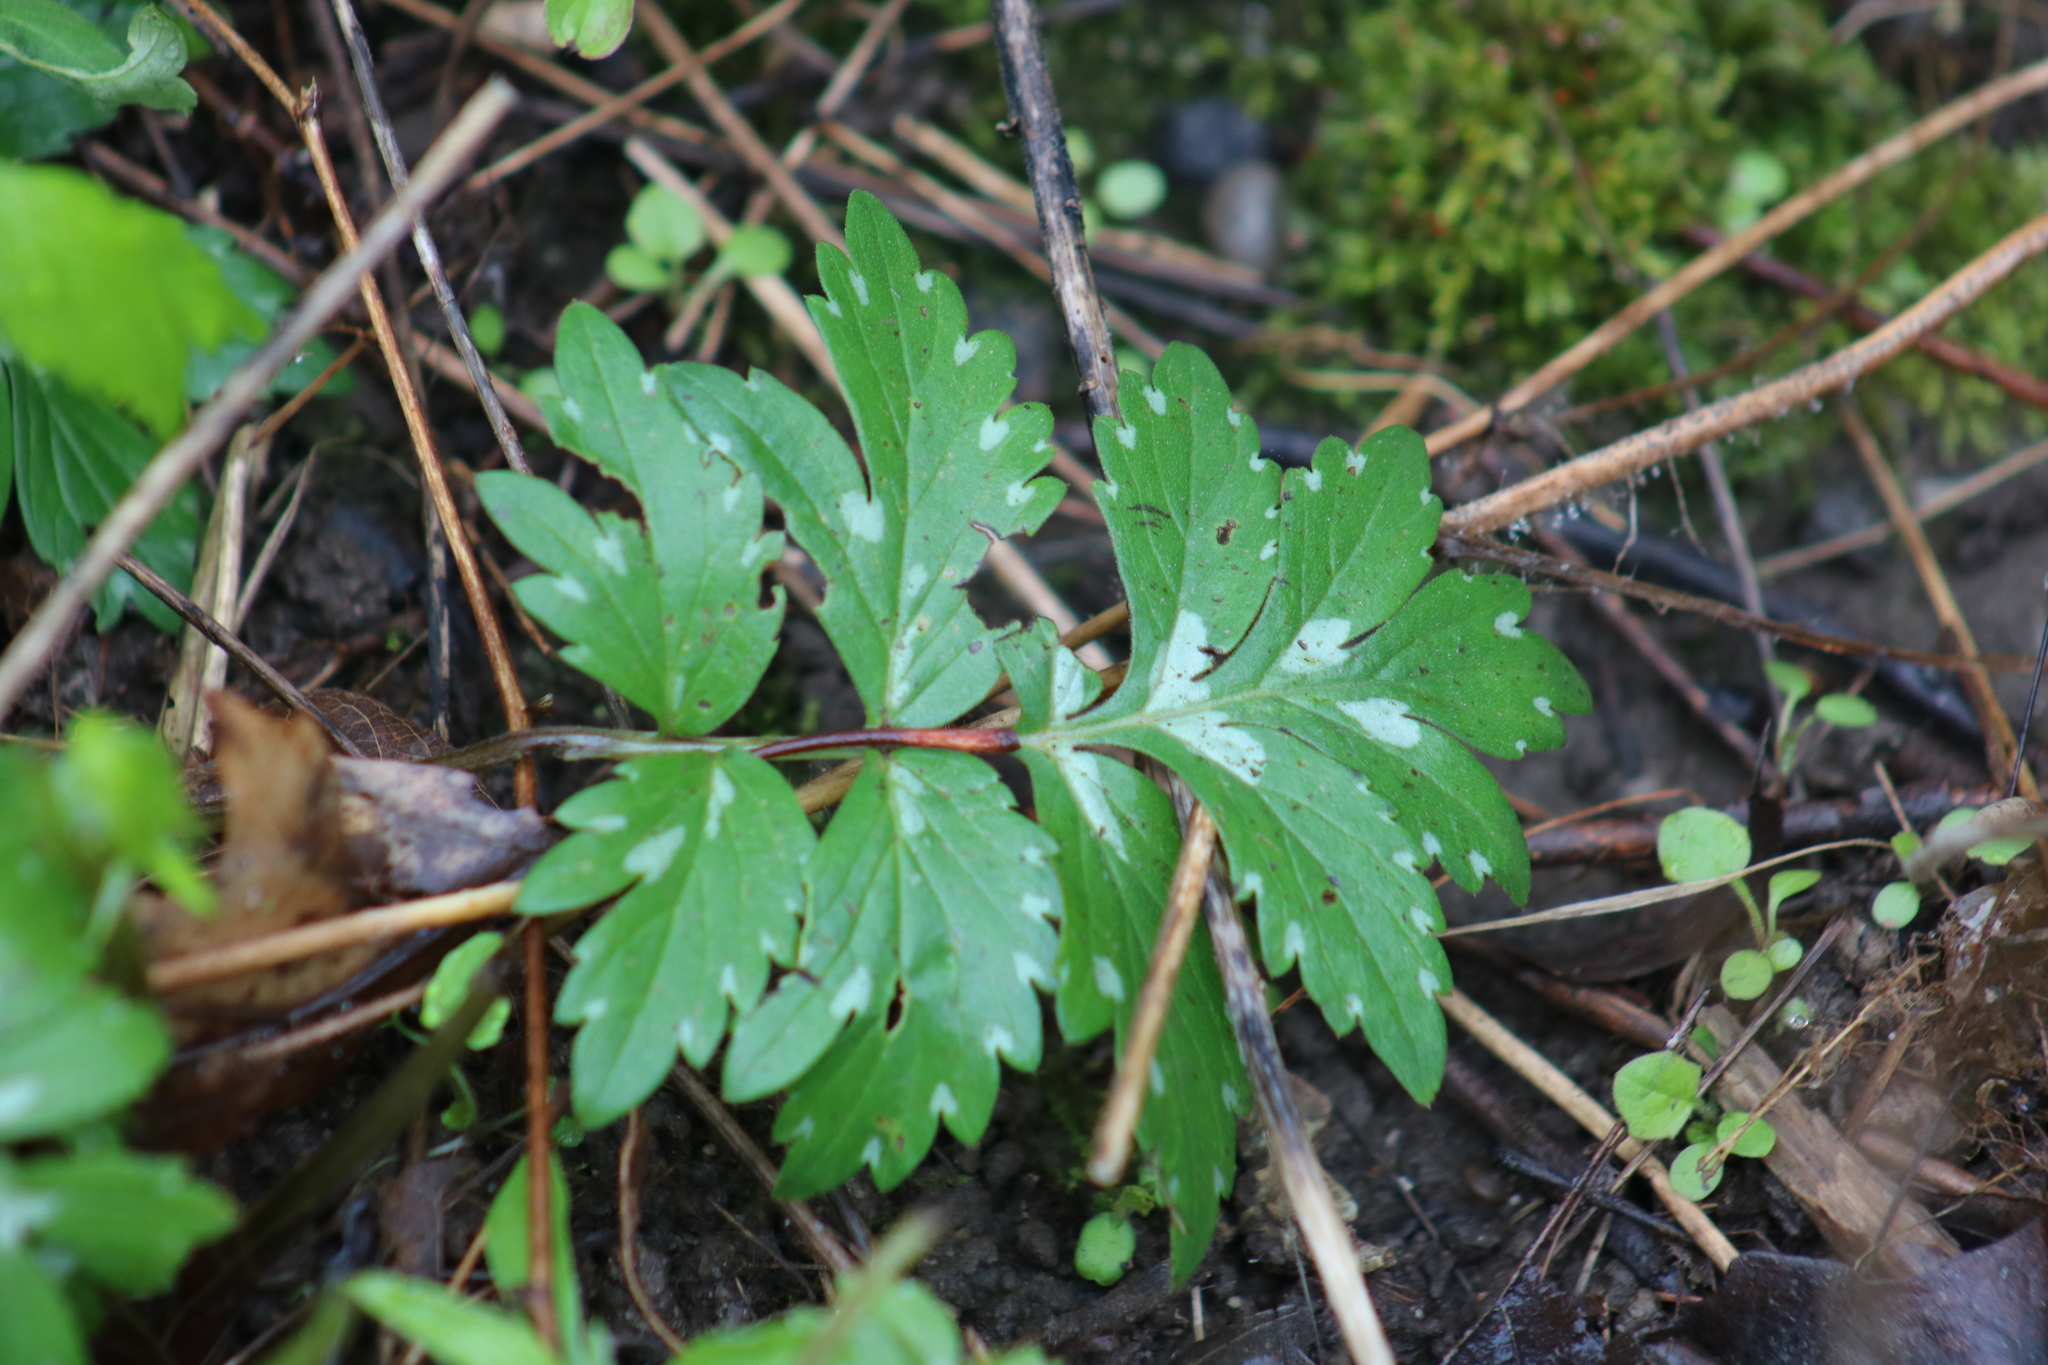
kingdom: Plantae
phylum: Tracheophyta
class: Magnoliopsida
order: Boraginales
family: Hydrophyllaceae
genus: Hydrophyllum
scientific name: Hydrophyllum virginianum
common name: Virginia waterleaf
